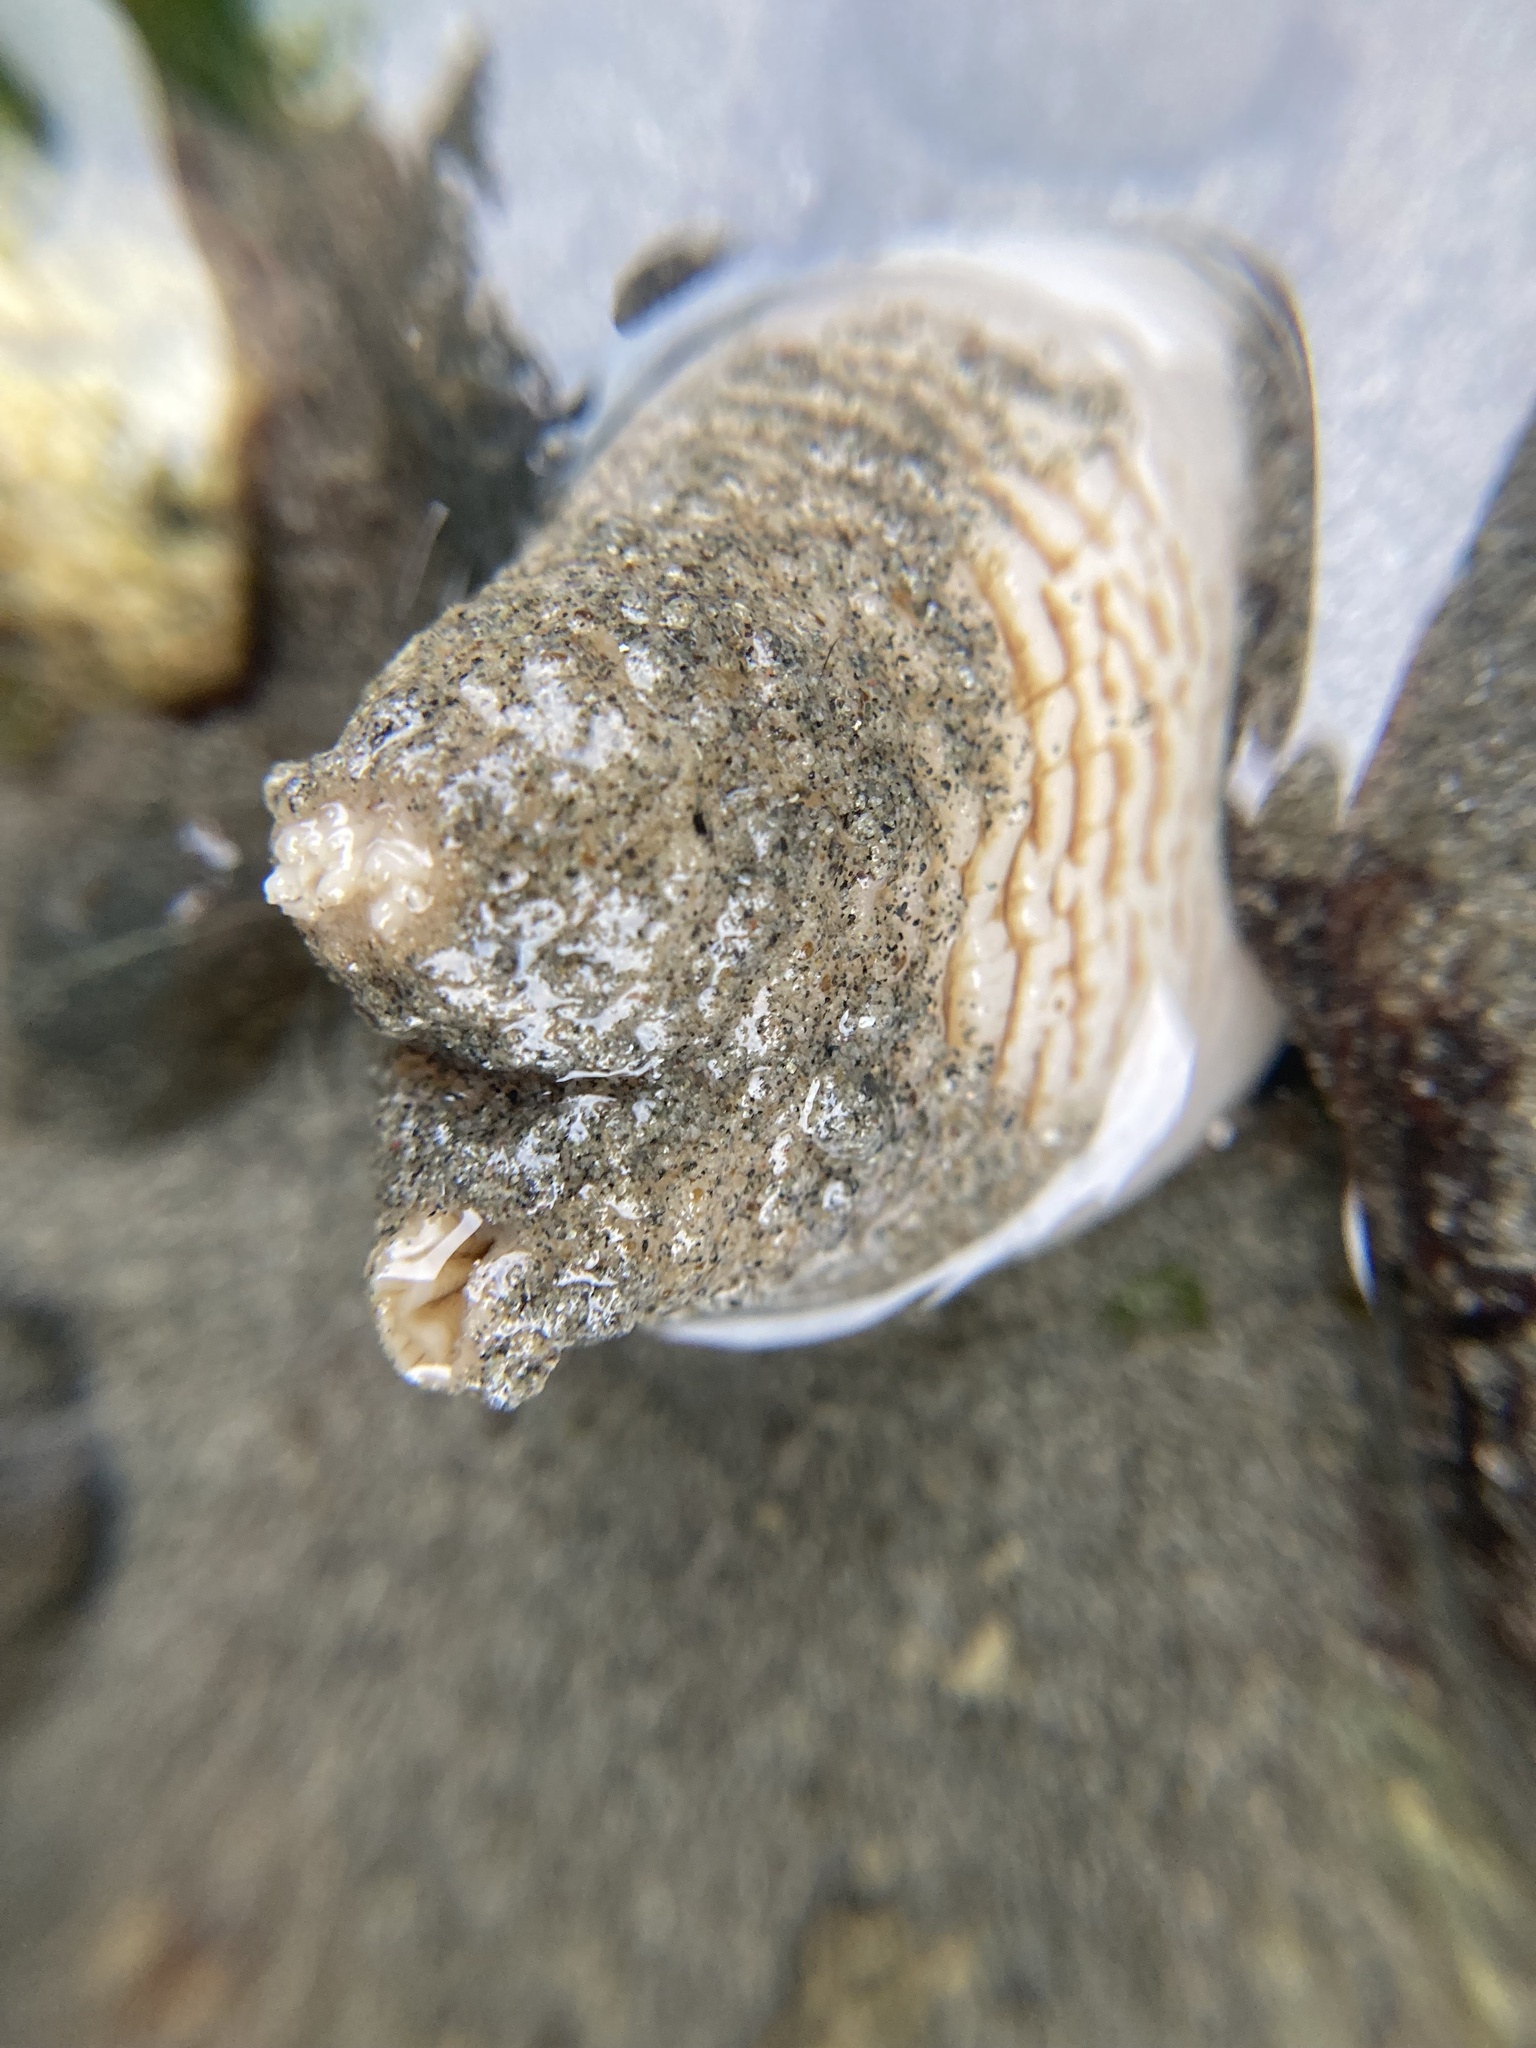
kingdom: Animalia
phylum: Mollusca
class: Bivalvia
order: Myida
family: Pholadidae
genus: Zirfaea
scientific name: Zirfaea pilsbryi
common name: Rough piddock
